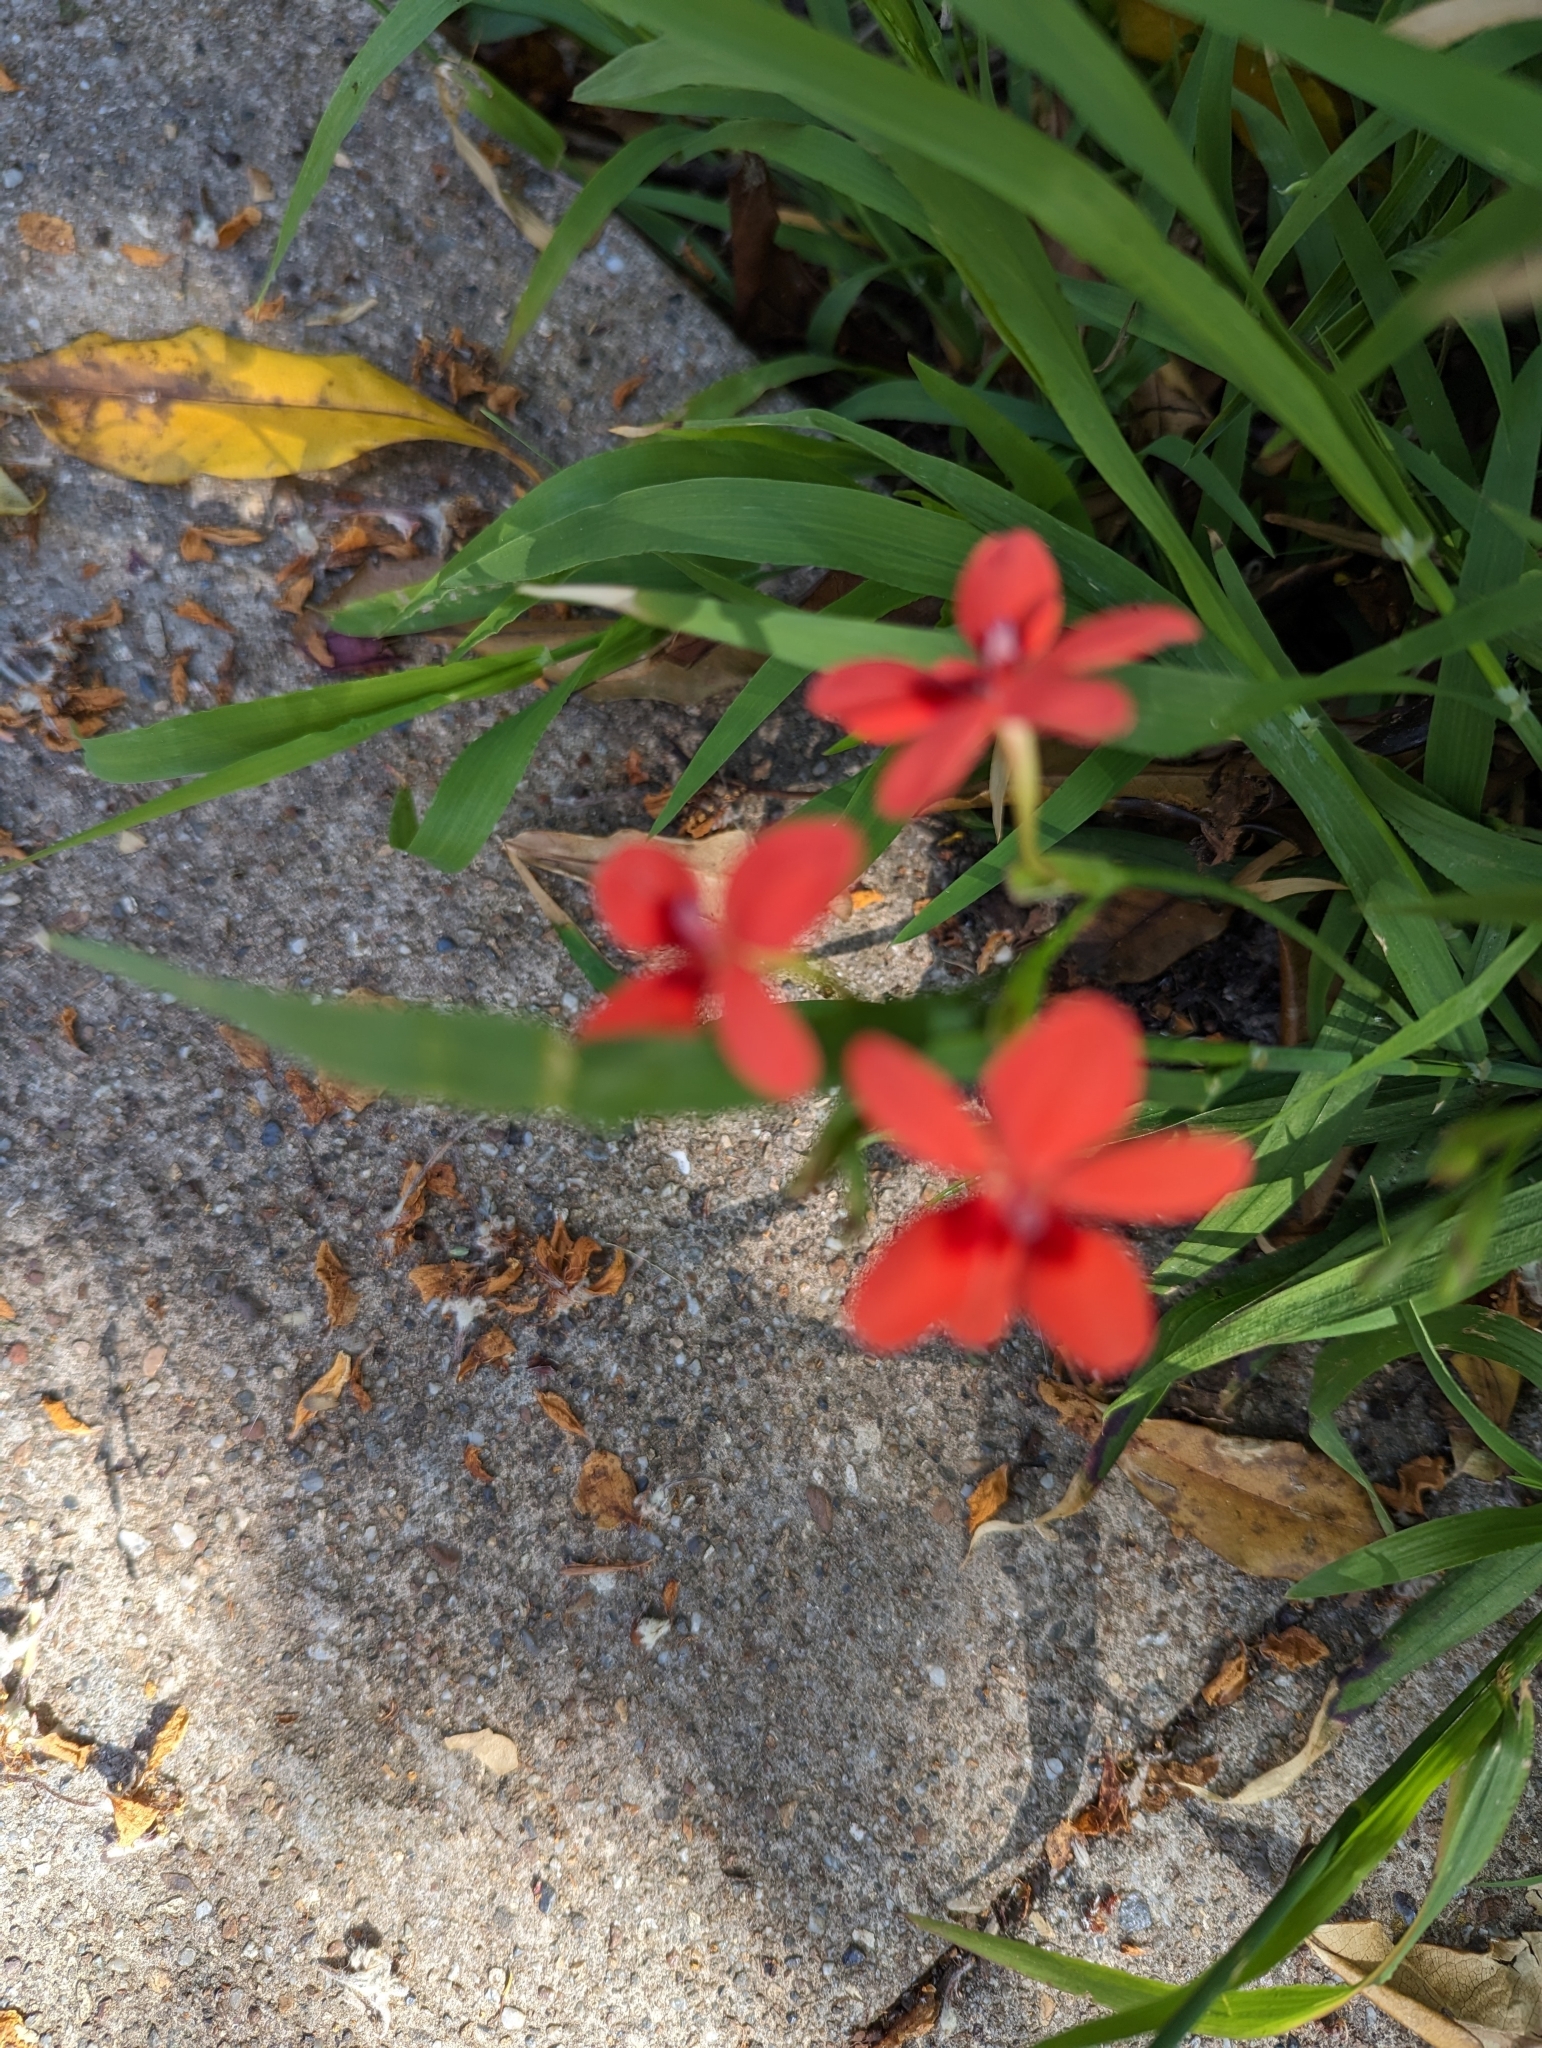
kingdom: Plantae
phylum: Tracheophyta
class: Liliopsida
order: Asparagales
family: Iridaceae
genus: Freesia
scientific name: Freesia laxa
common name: False freesia
